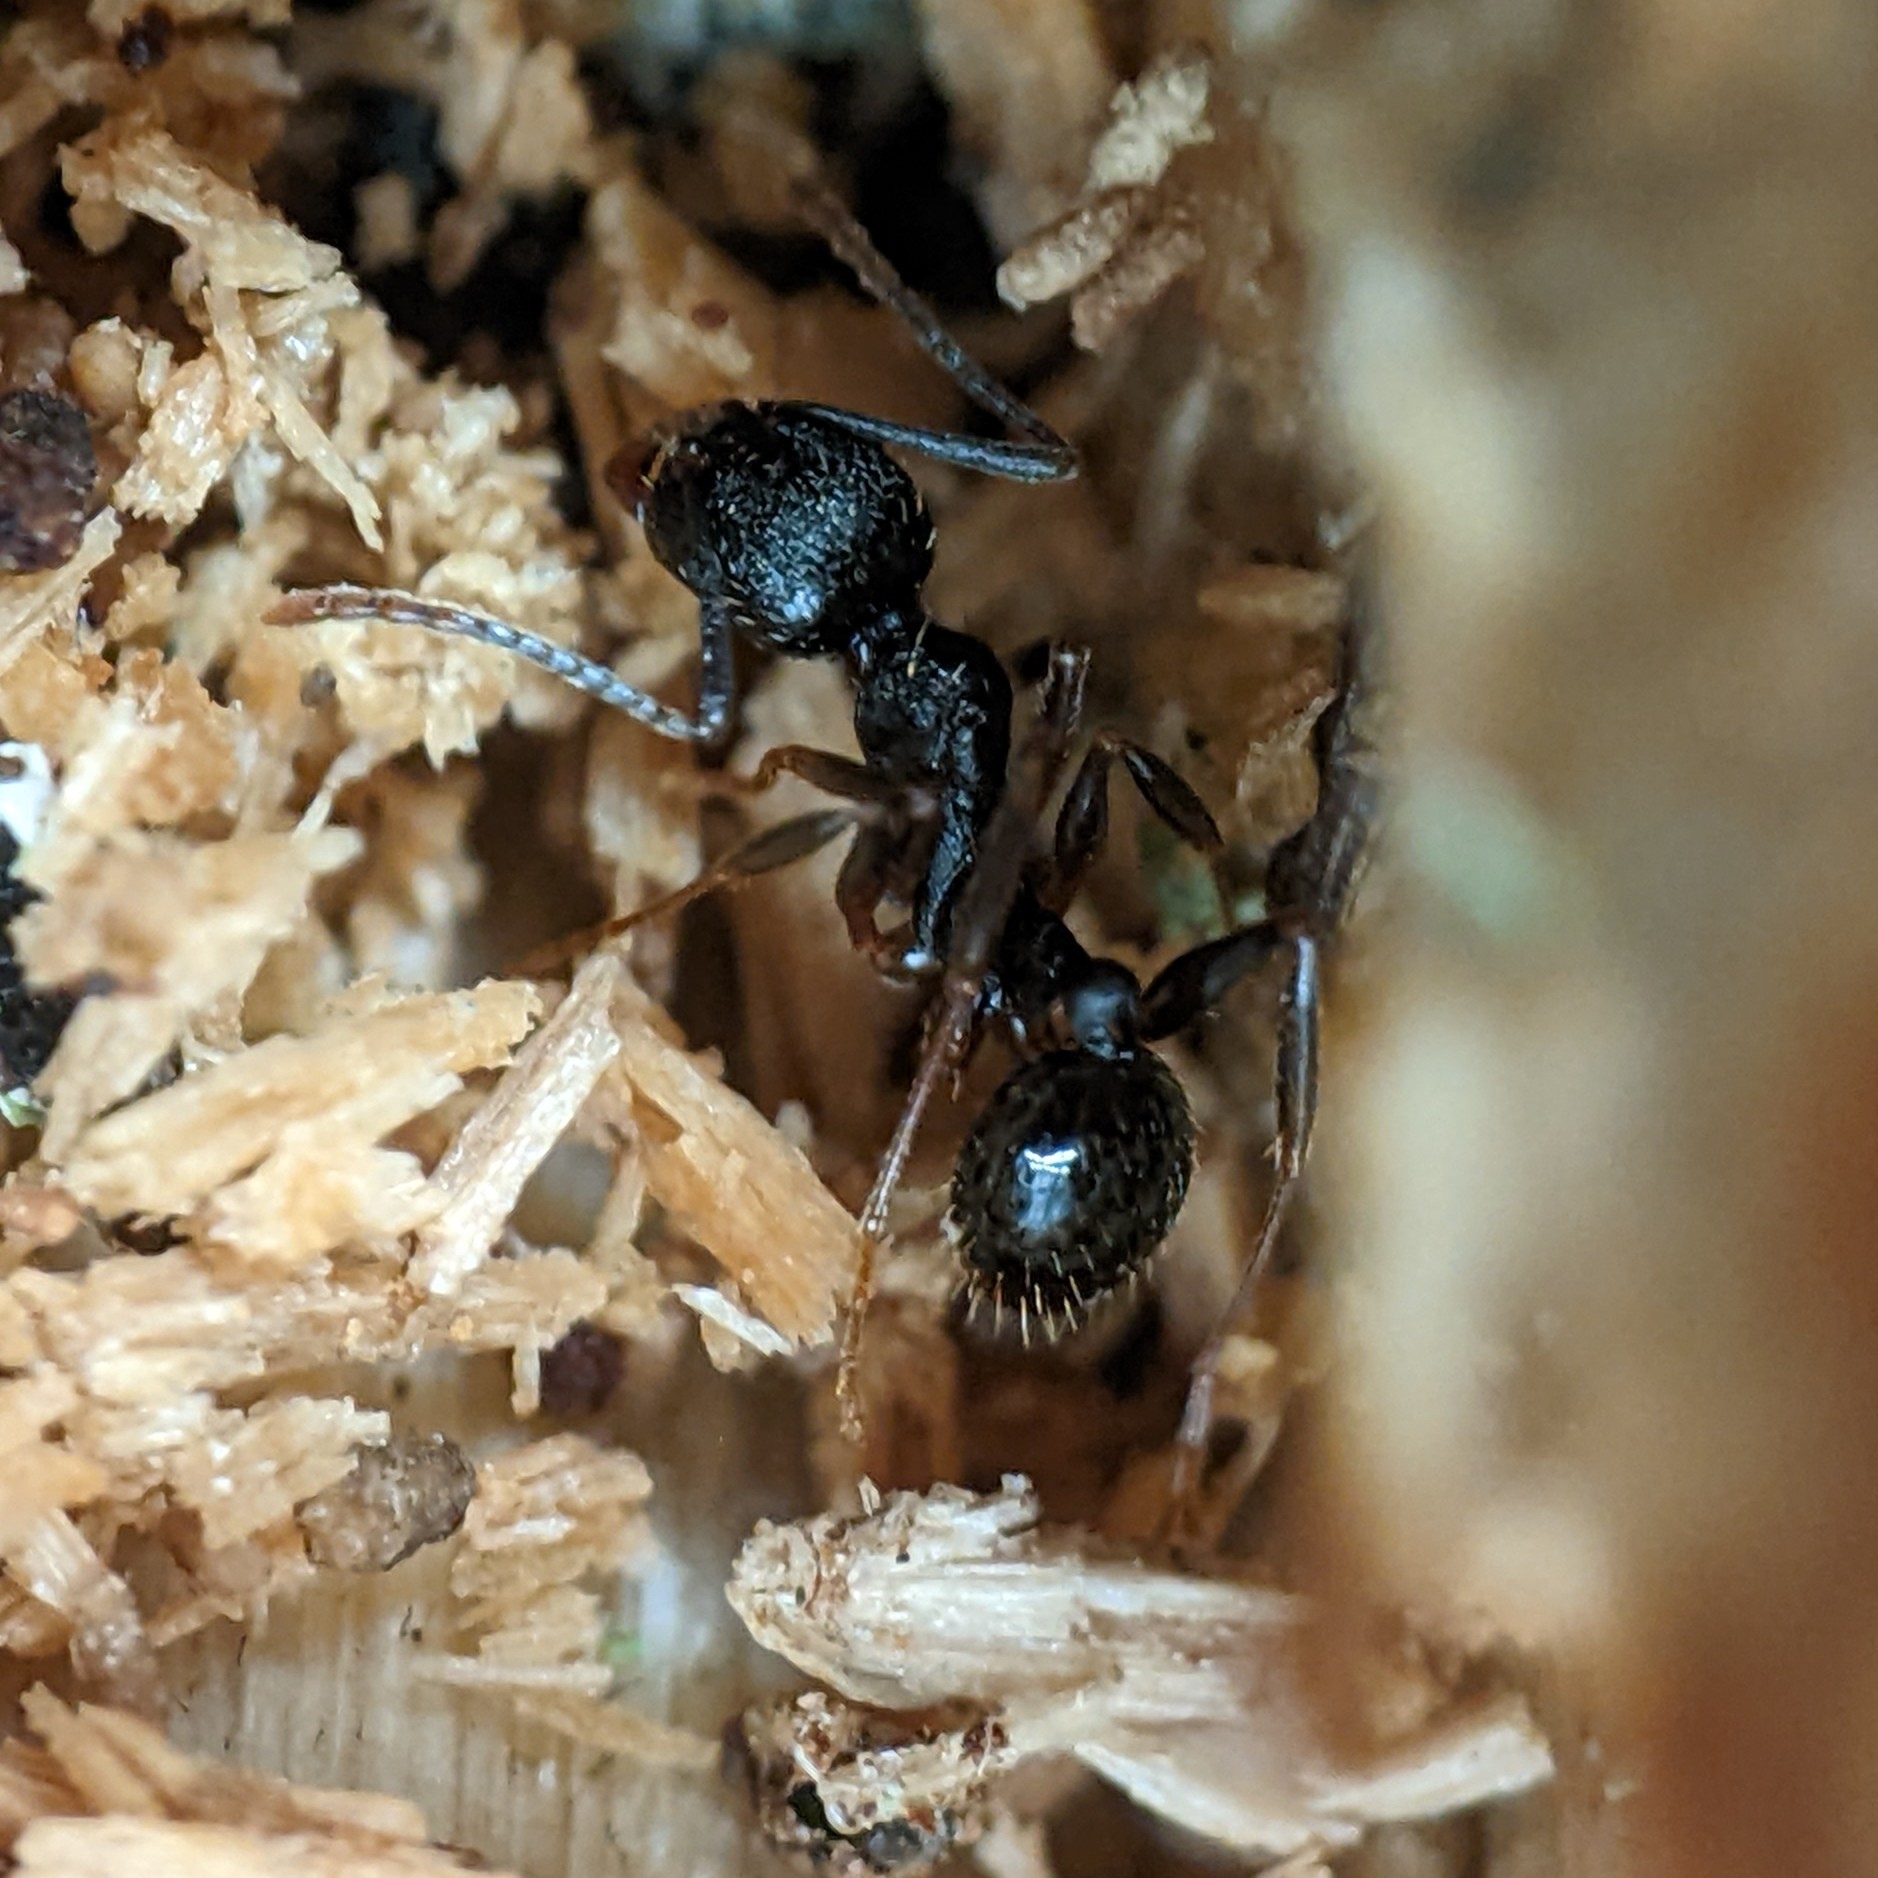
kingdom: Animalia
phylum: Arthropoda
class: Insecta
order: Hymenoptera
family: Formicidae
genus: Aphaenogaster
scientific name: Aphaenogaster picea
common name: Pitch-black collared ant
